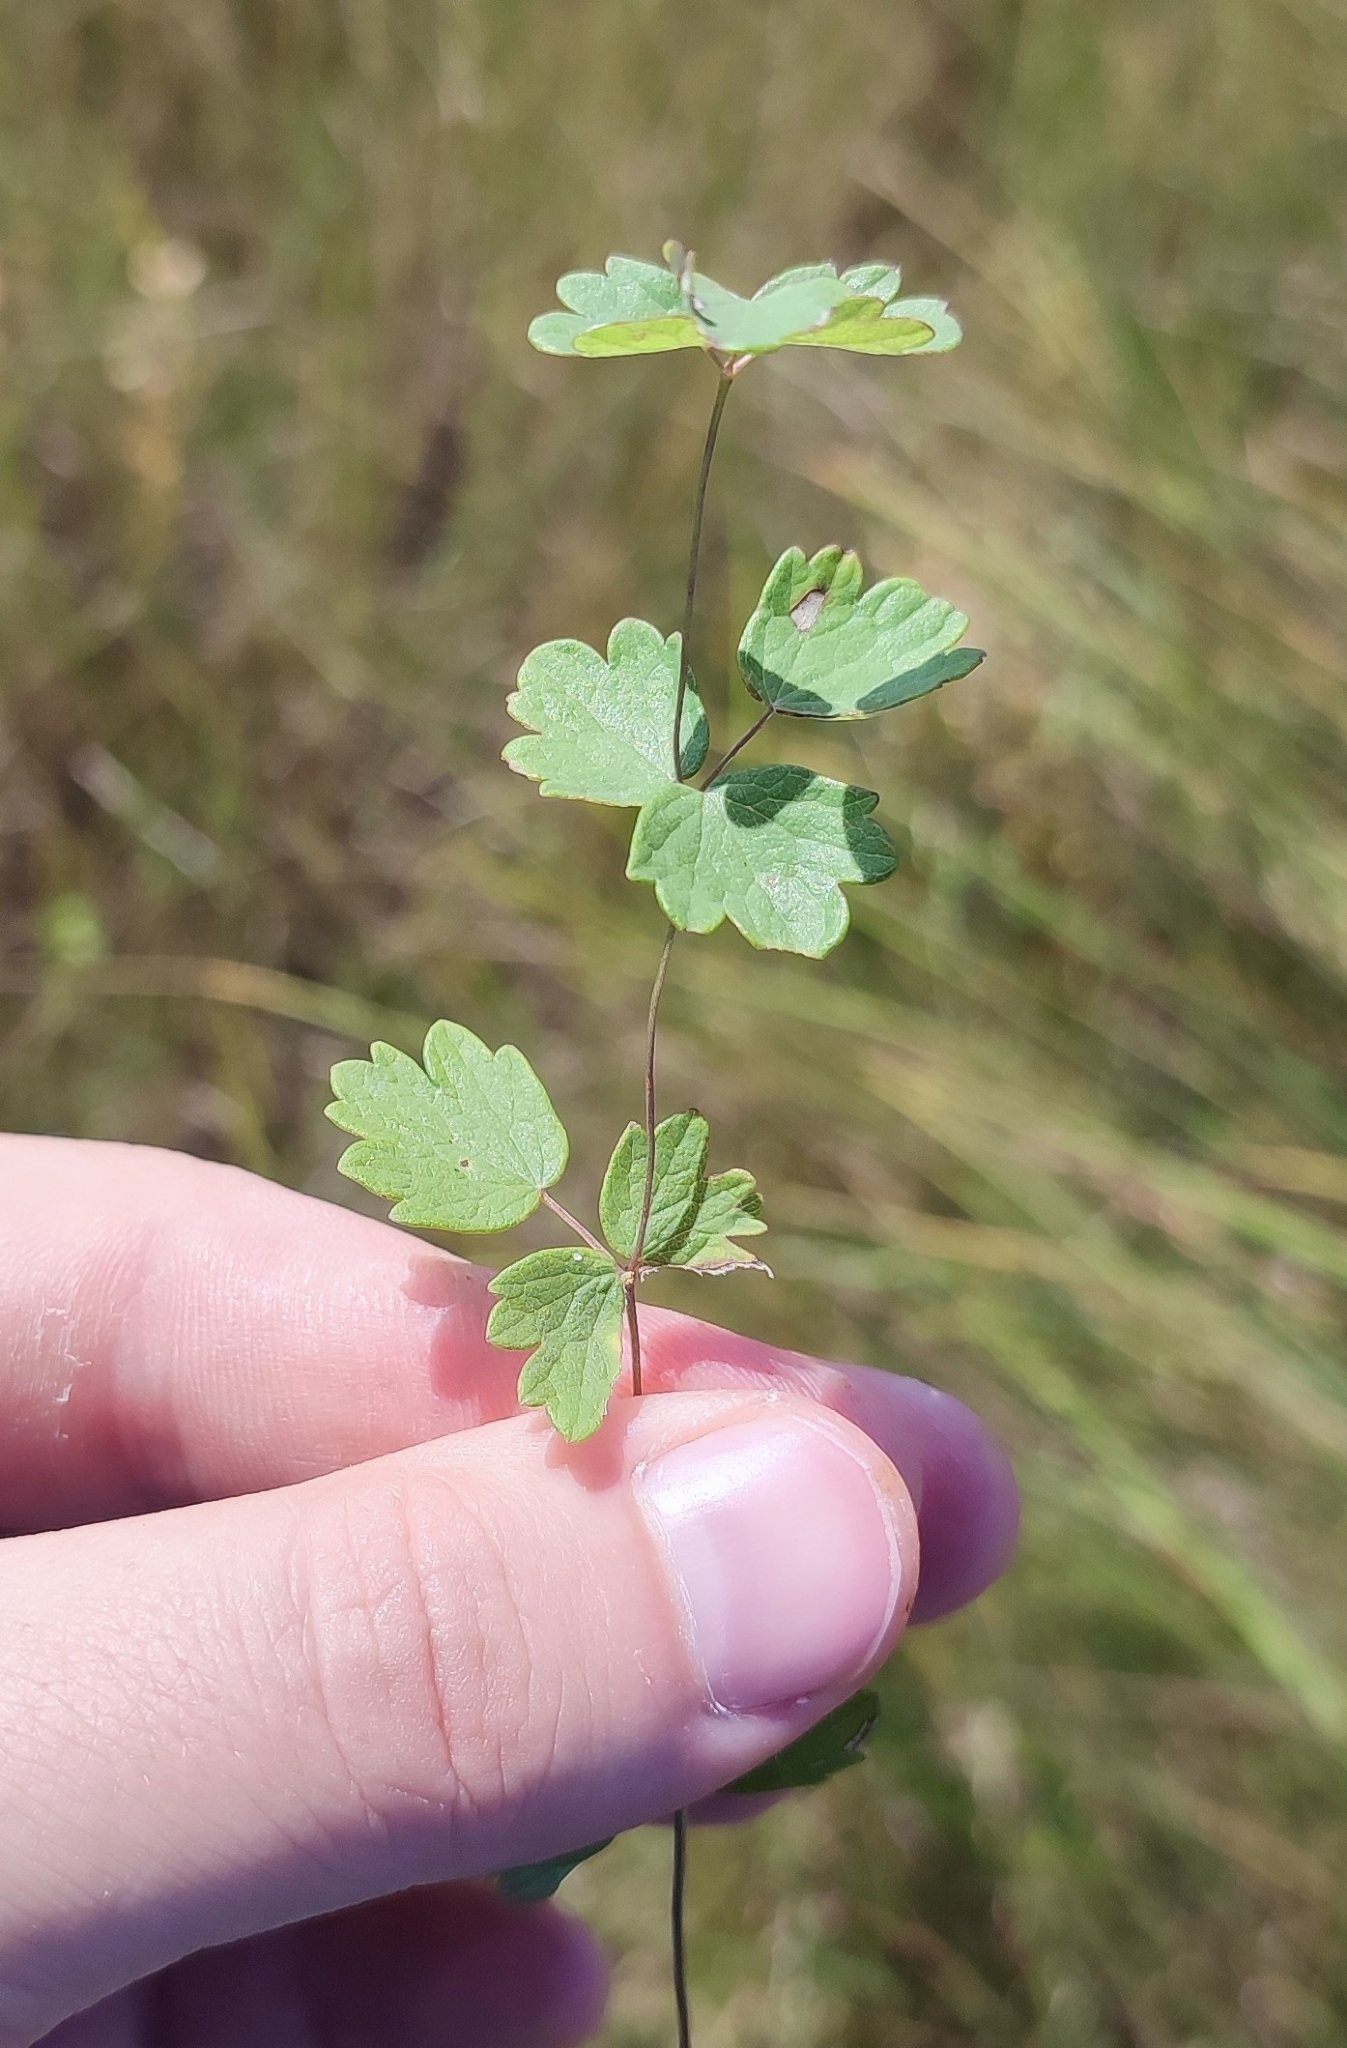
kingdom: Plantae
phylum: Tracheophyta
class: Magnoliopsida
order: Ranunculales
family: Ranunculaceae
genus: Thalictrum
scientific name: Thalictrum minus
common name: Lesser meadow-rue
